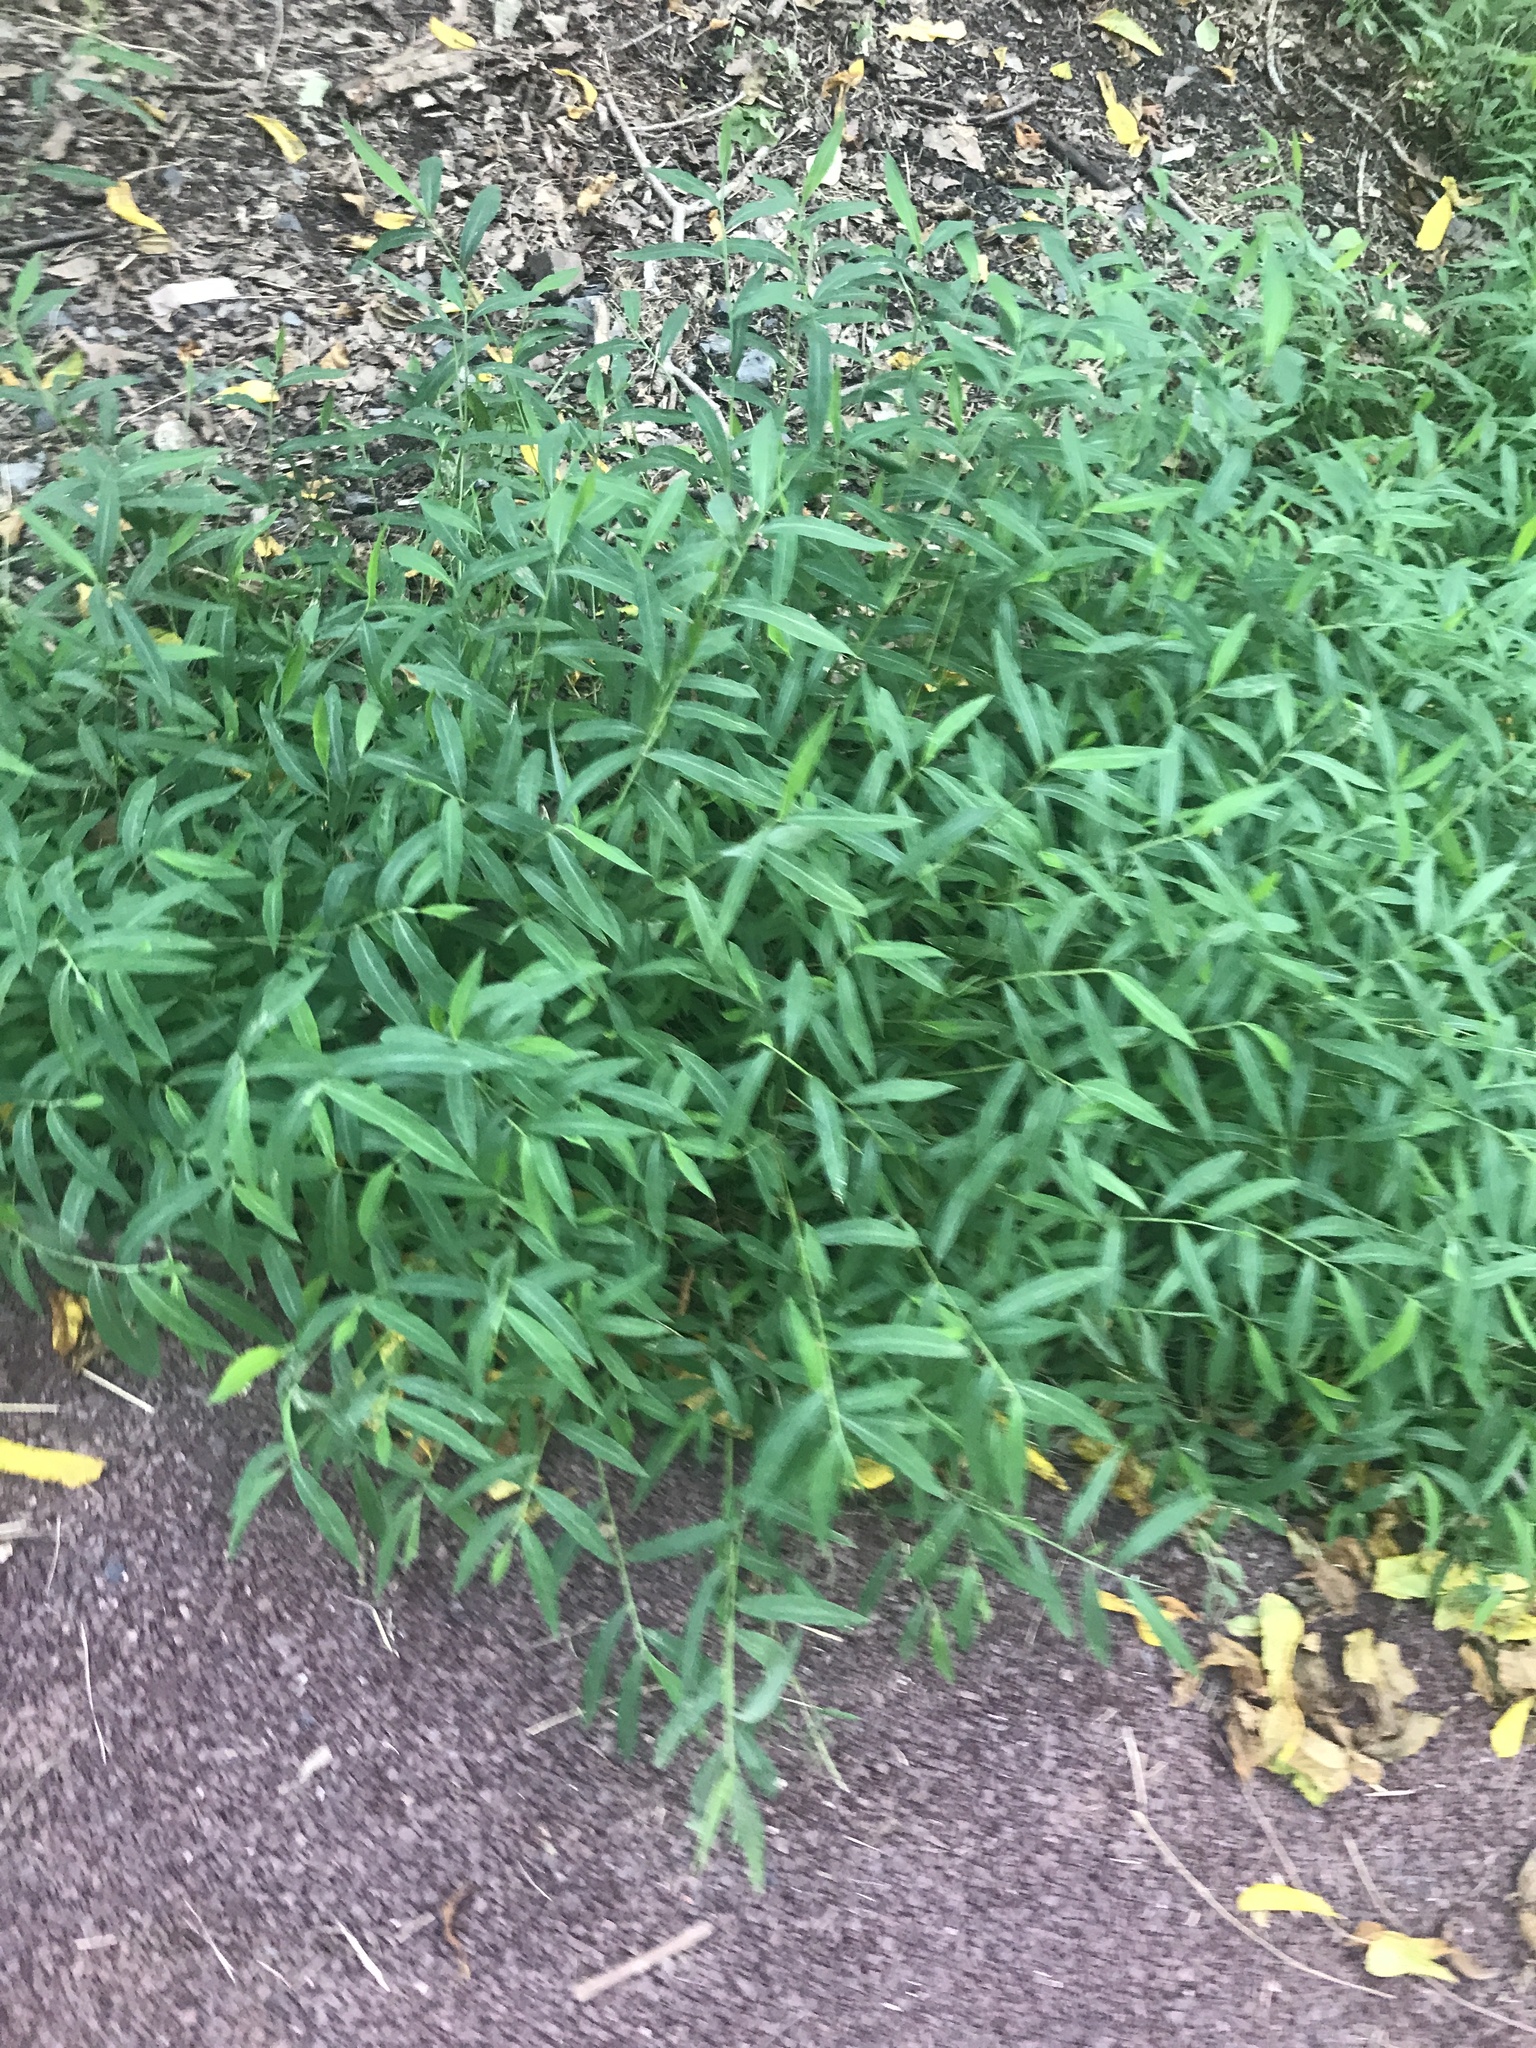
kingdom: Plantae
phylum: Tracheophyta
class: Liliopsida
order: Poales
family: Poaceae
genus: Microstegium
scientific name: Microstegium vimineum
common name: Japanese stiltgrass
